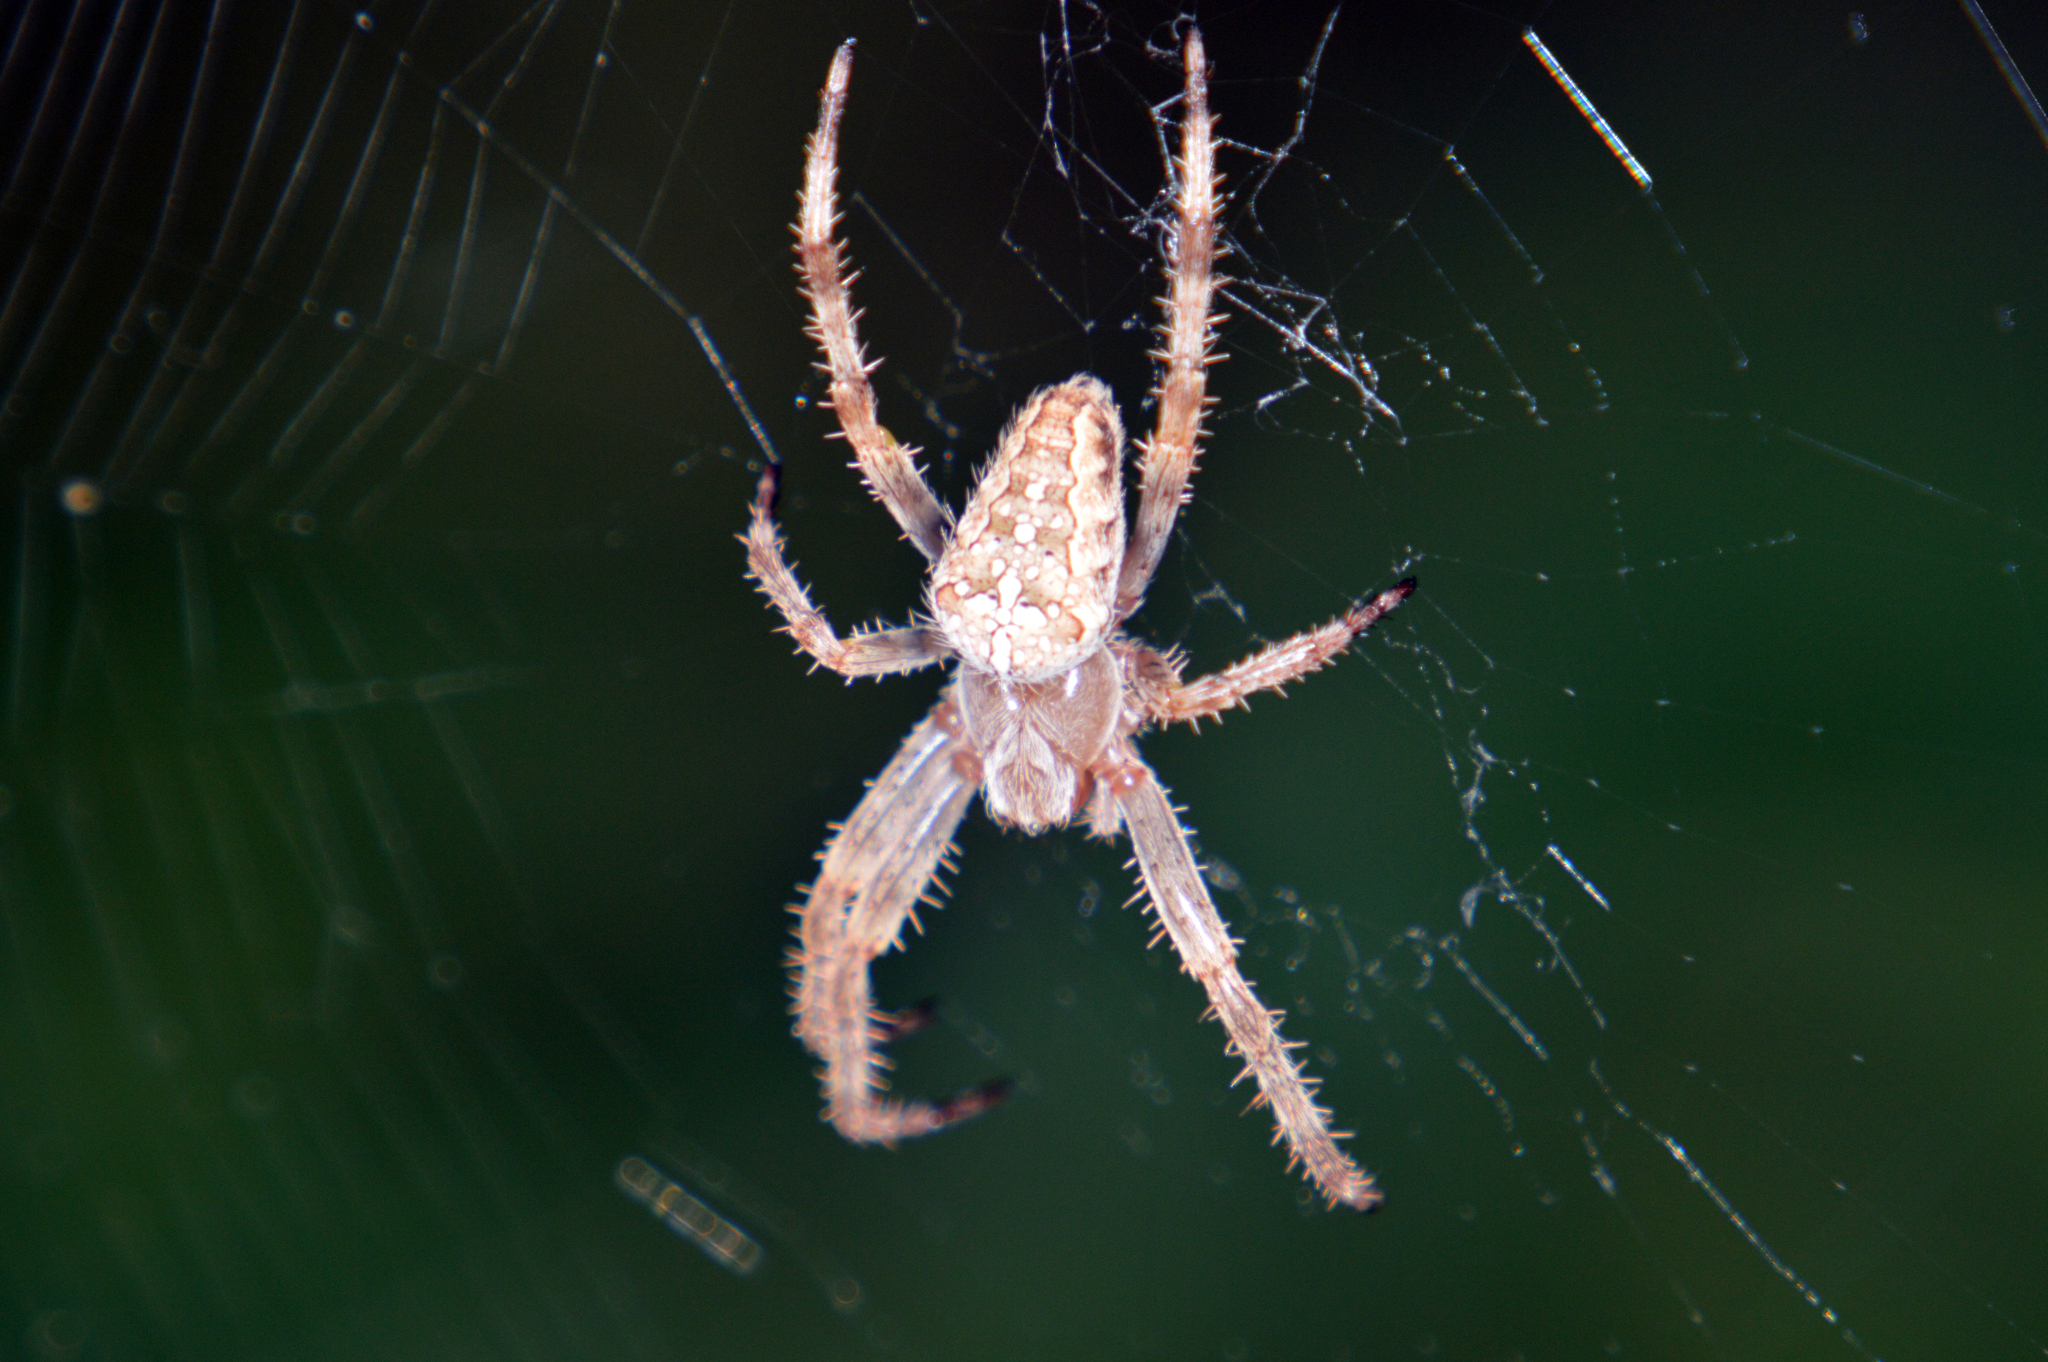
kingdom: Animalia
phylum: Arthropoda
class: Arachnida
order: Araneae
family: Araneidae
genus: Araneus
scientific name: Araneus diadematus
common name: Cross orbweaver
